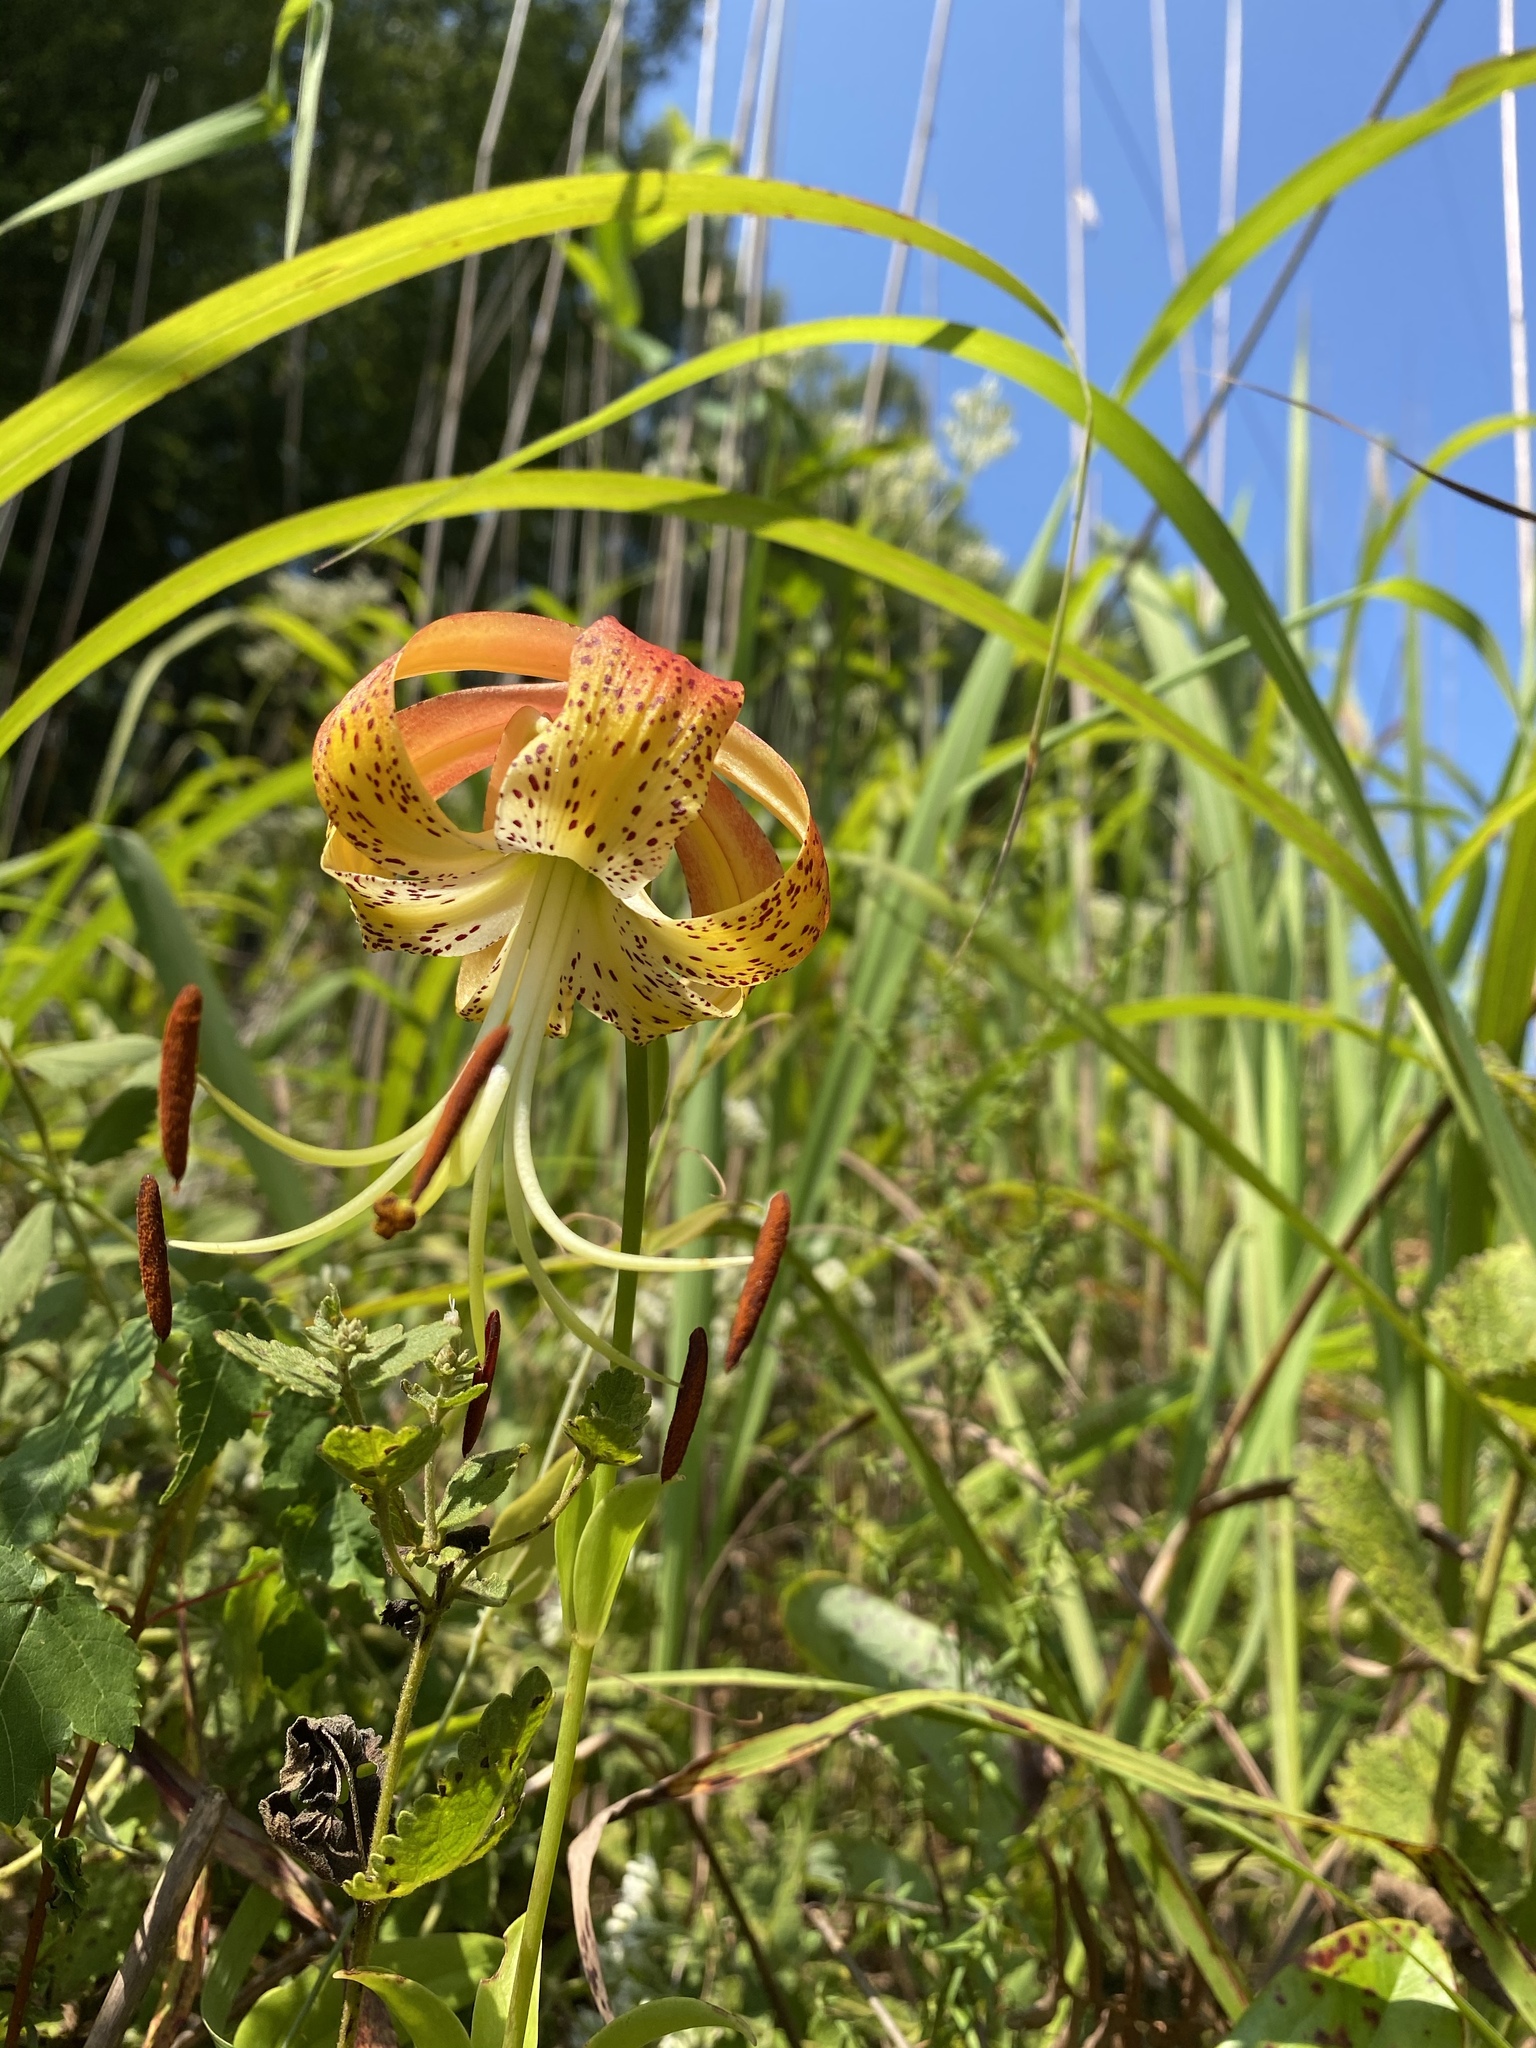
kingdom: Plantae
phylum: Tracheophyta
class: Liliopsida
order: Liliales
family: Liliaceae
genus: Lilium
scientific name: Lilium michauxii
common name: Carolina lily
